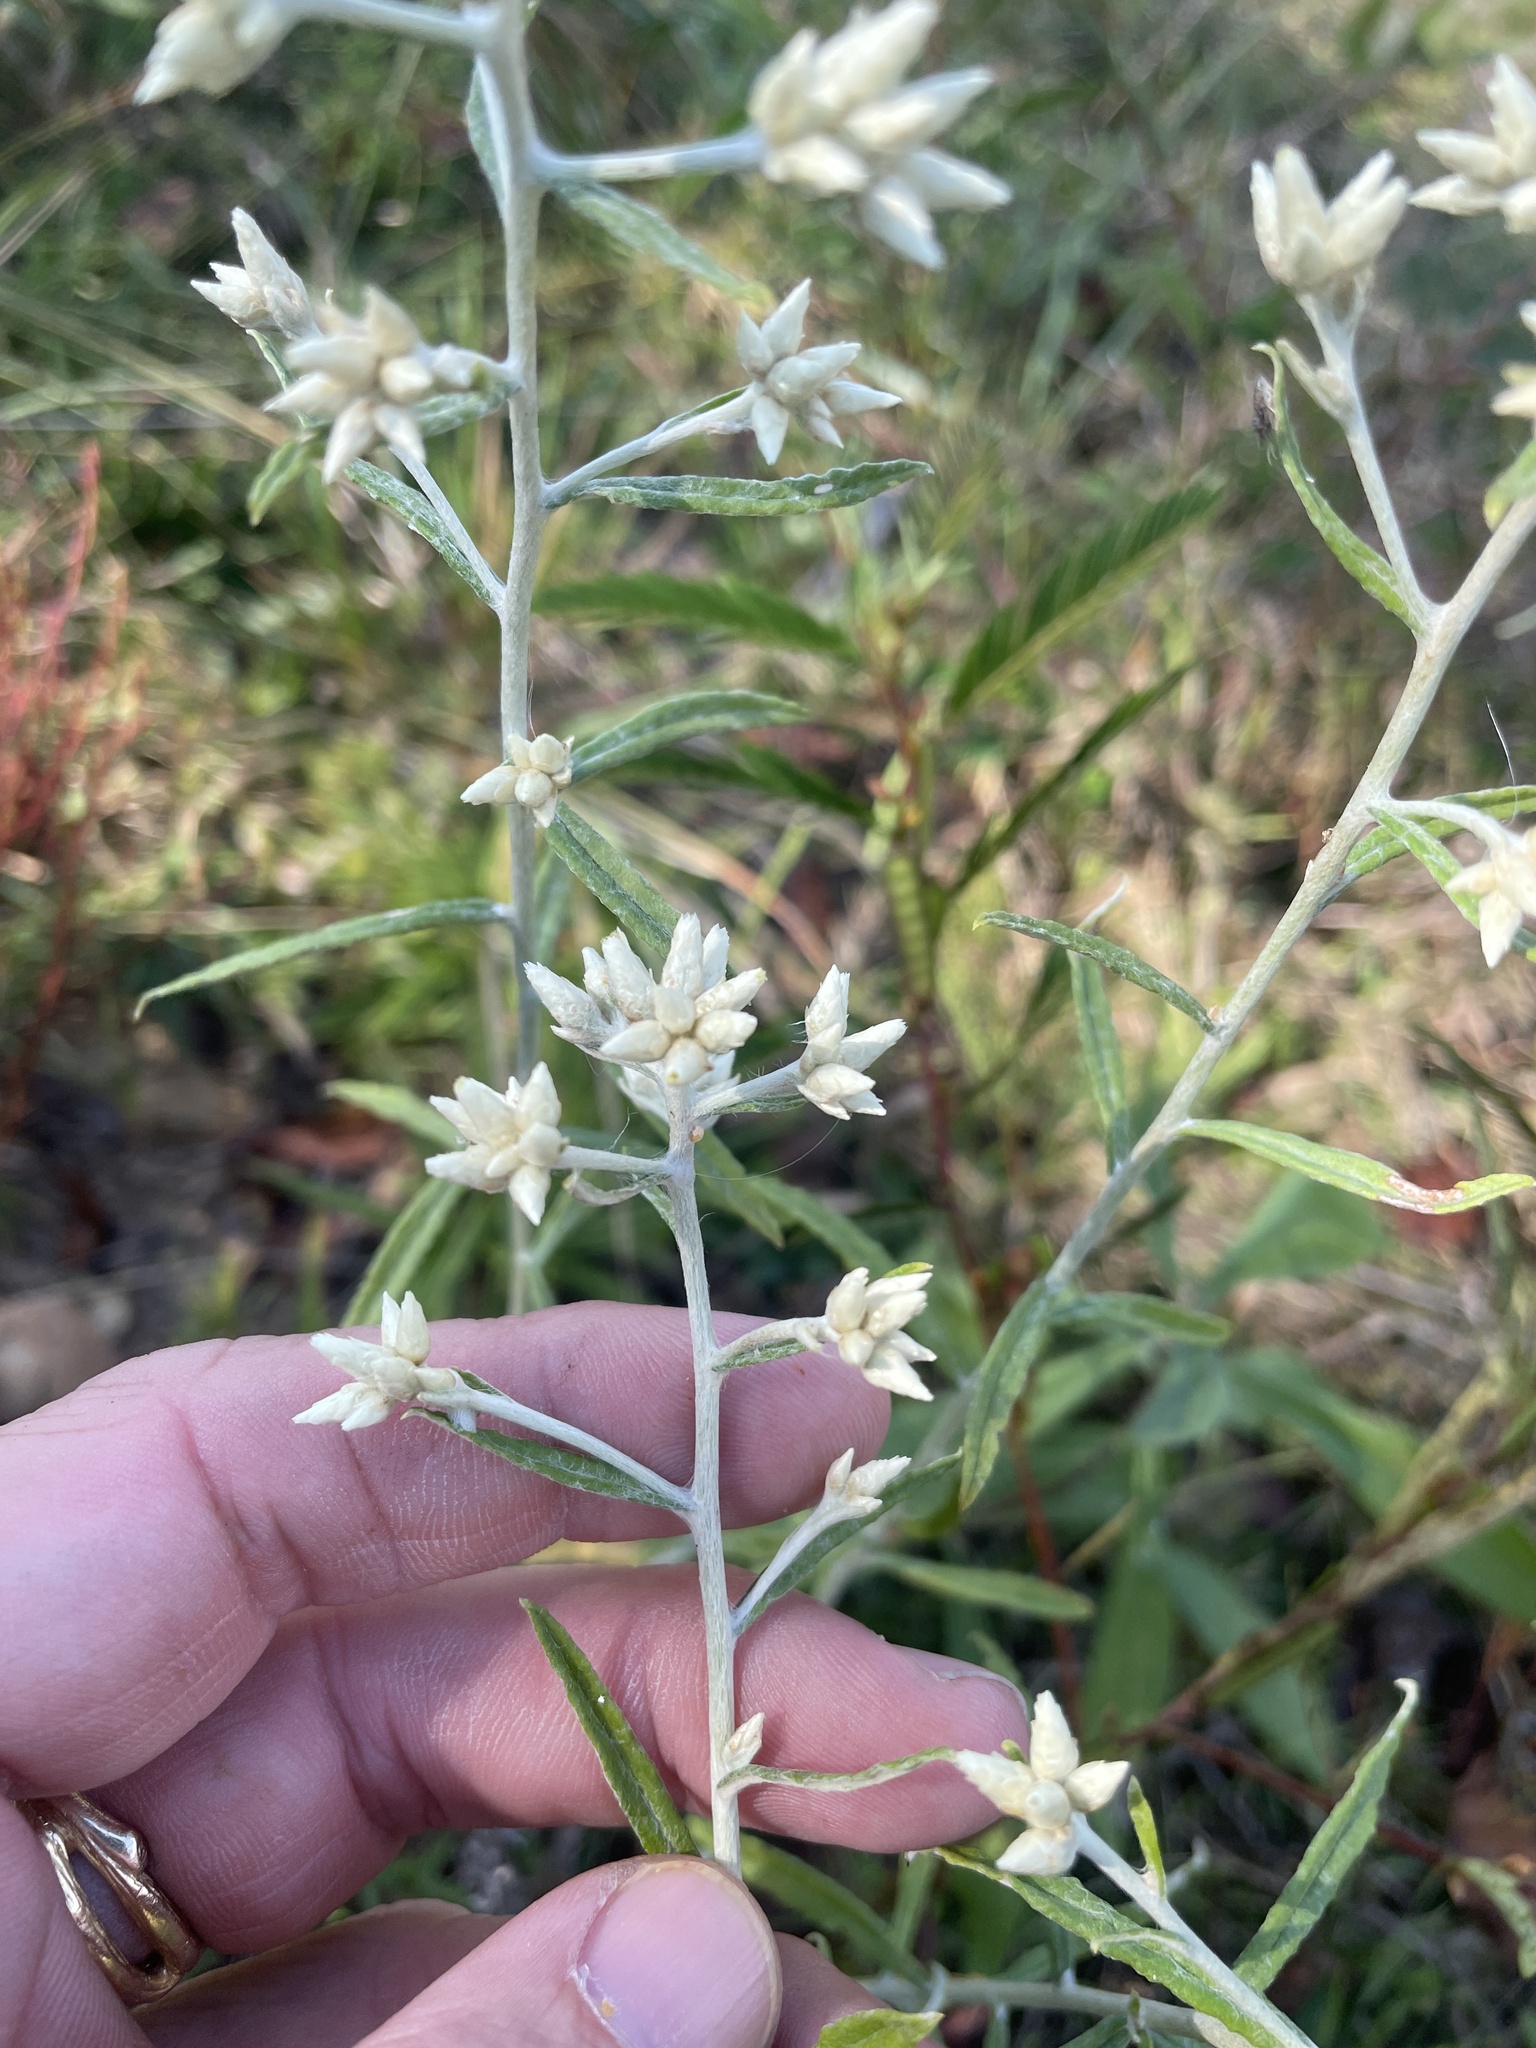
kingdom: Plantae
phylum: Tracheophyta
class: Magnoliopsida
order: Asterales
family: Asteraceae
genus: Pseudognaphalium
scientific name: Pseudognaphalium obtusifolium
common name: Eastern rabbit-tobacco
